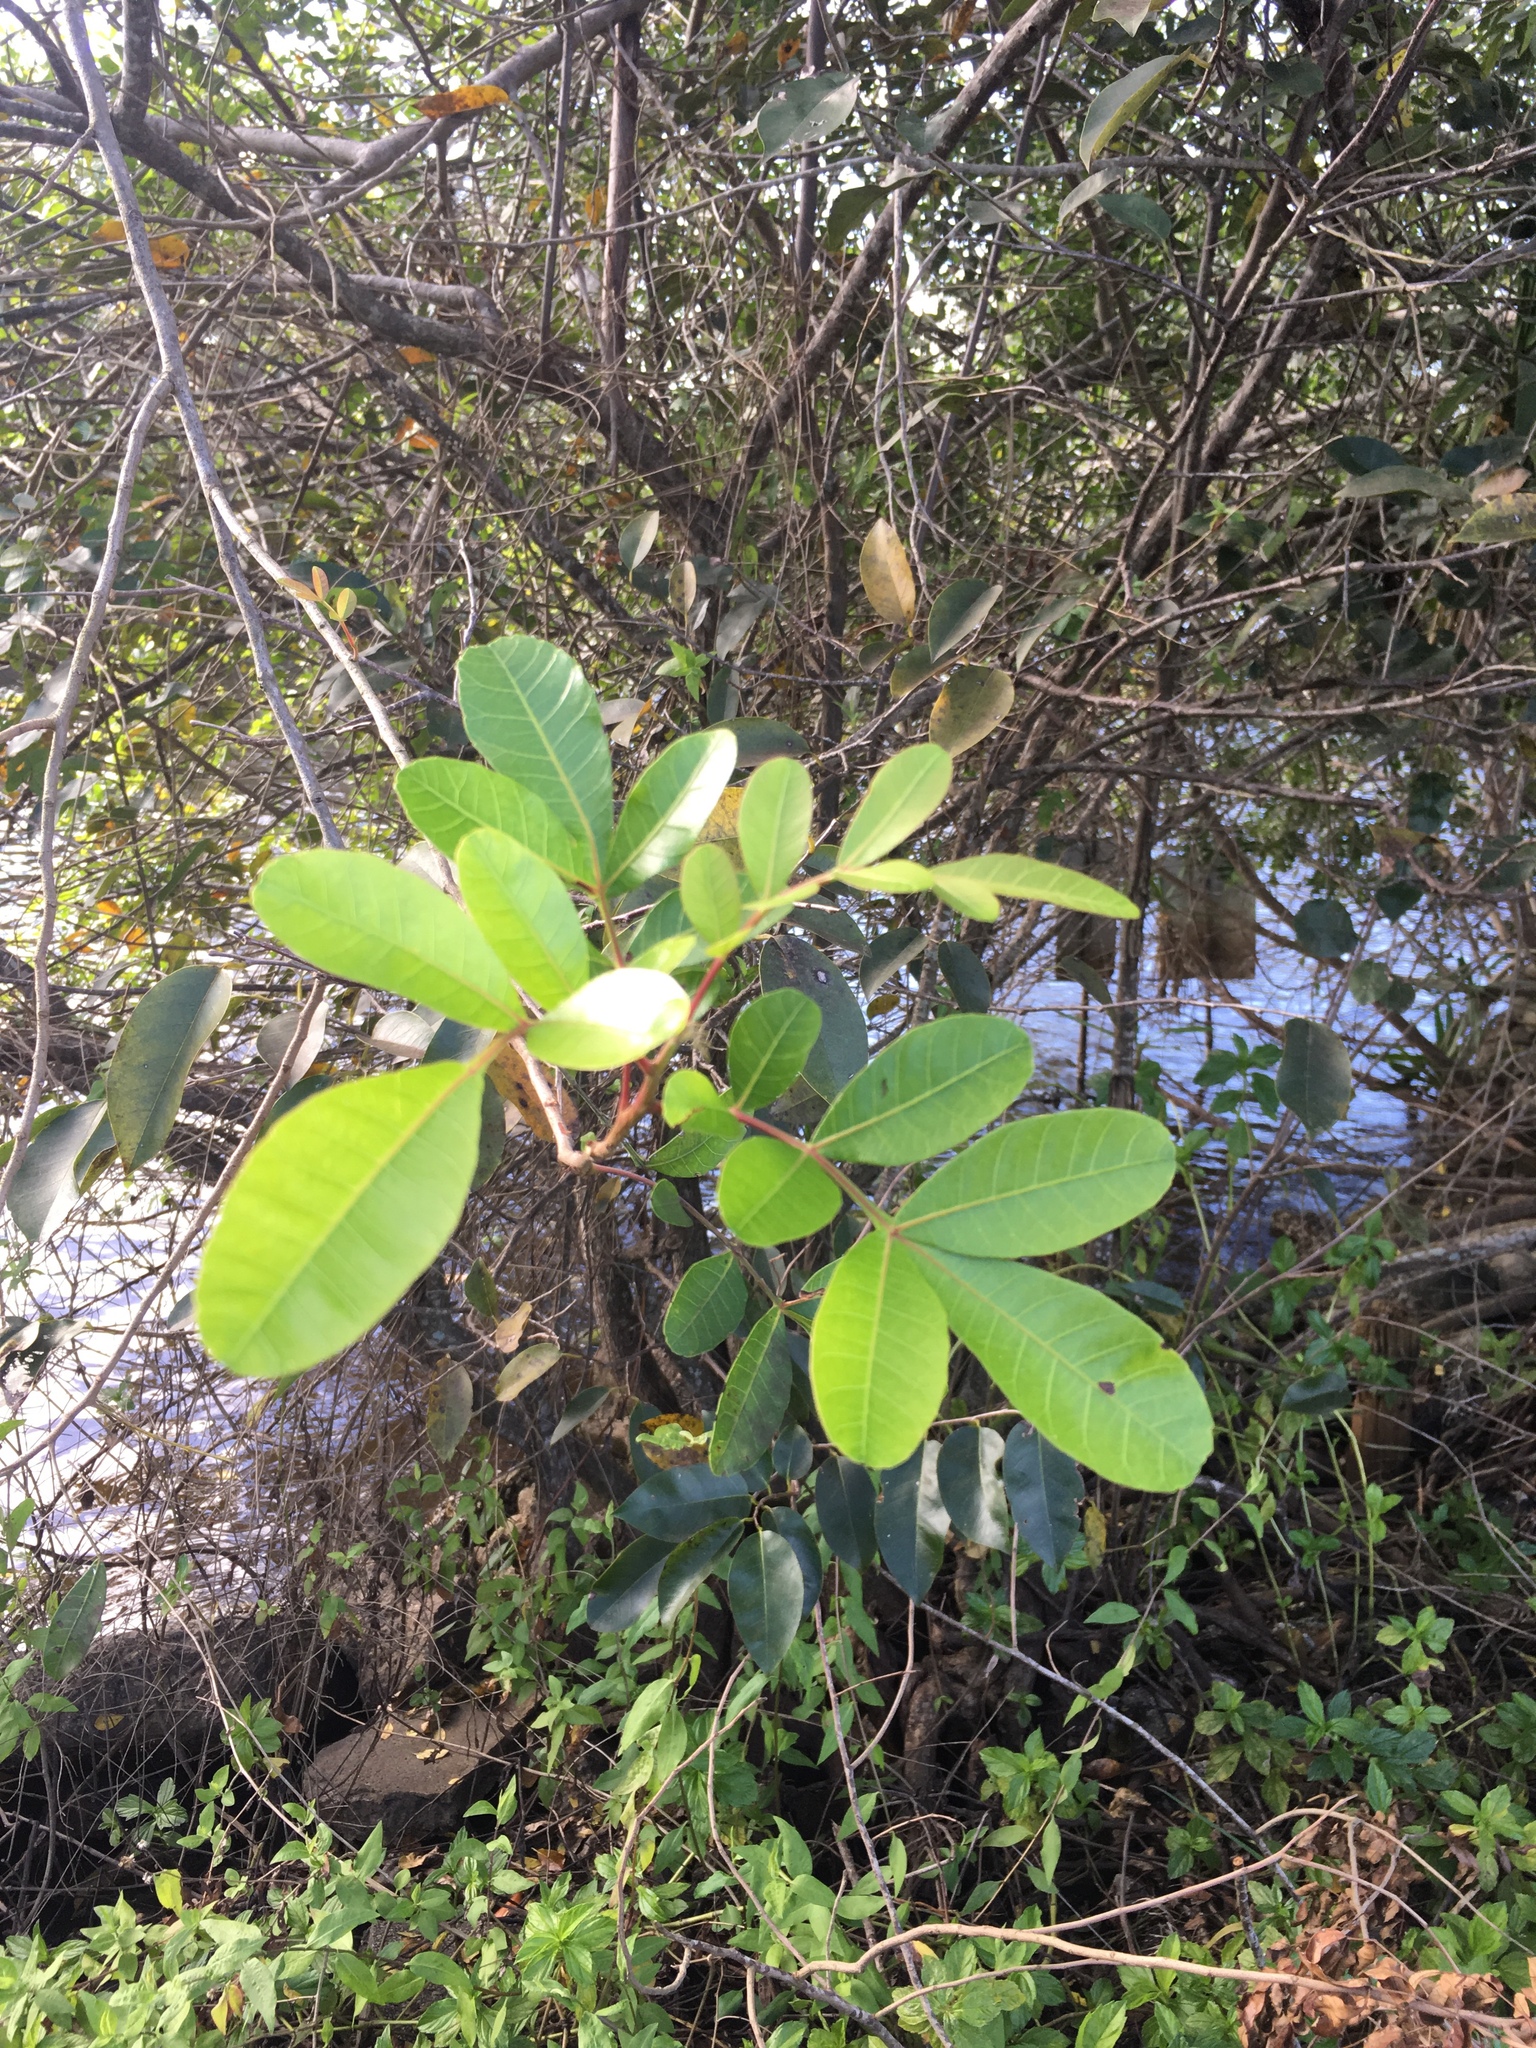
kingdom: Plantae
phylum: Tracheophyta
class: Magnoliopsida
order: Sapindales
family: Anacardiaceae
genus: Schinus
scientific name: Schinus terebinthifolia
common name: Brazilian peppertree
